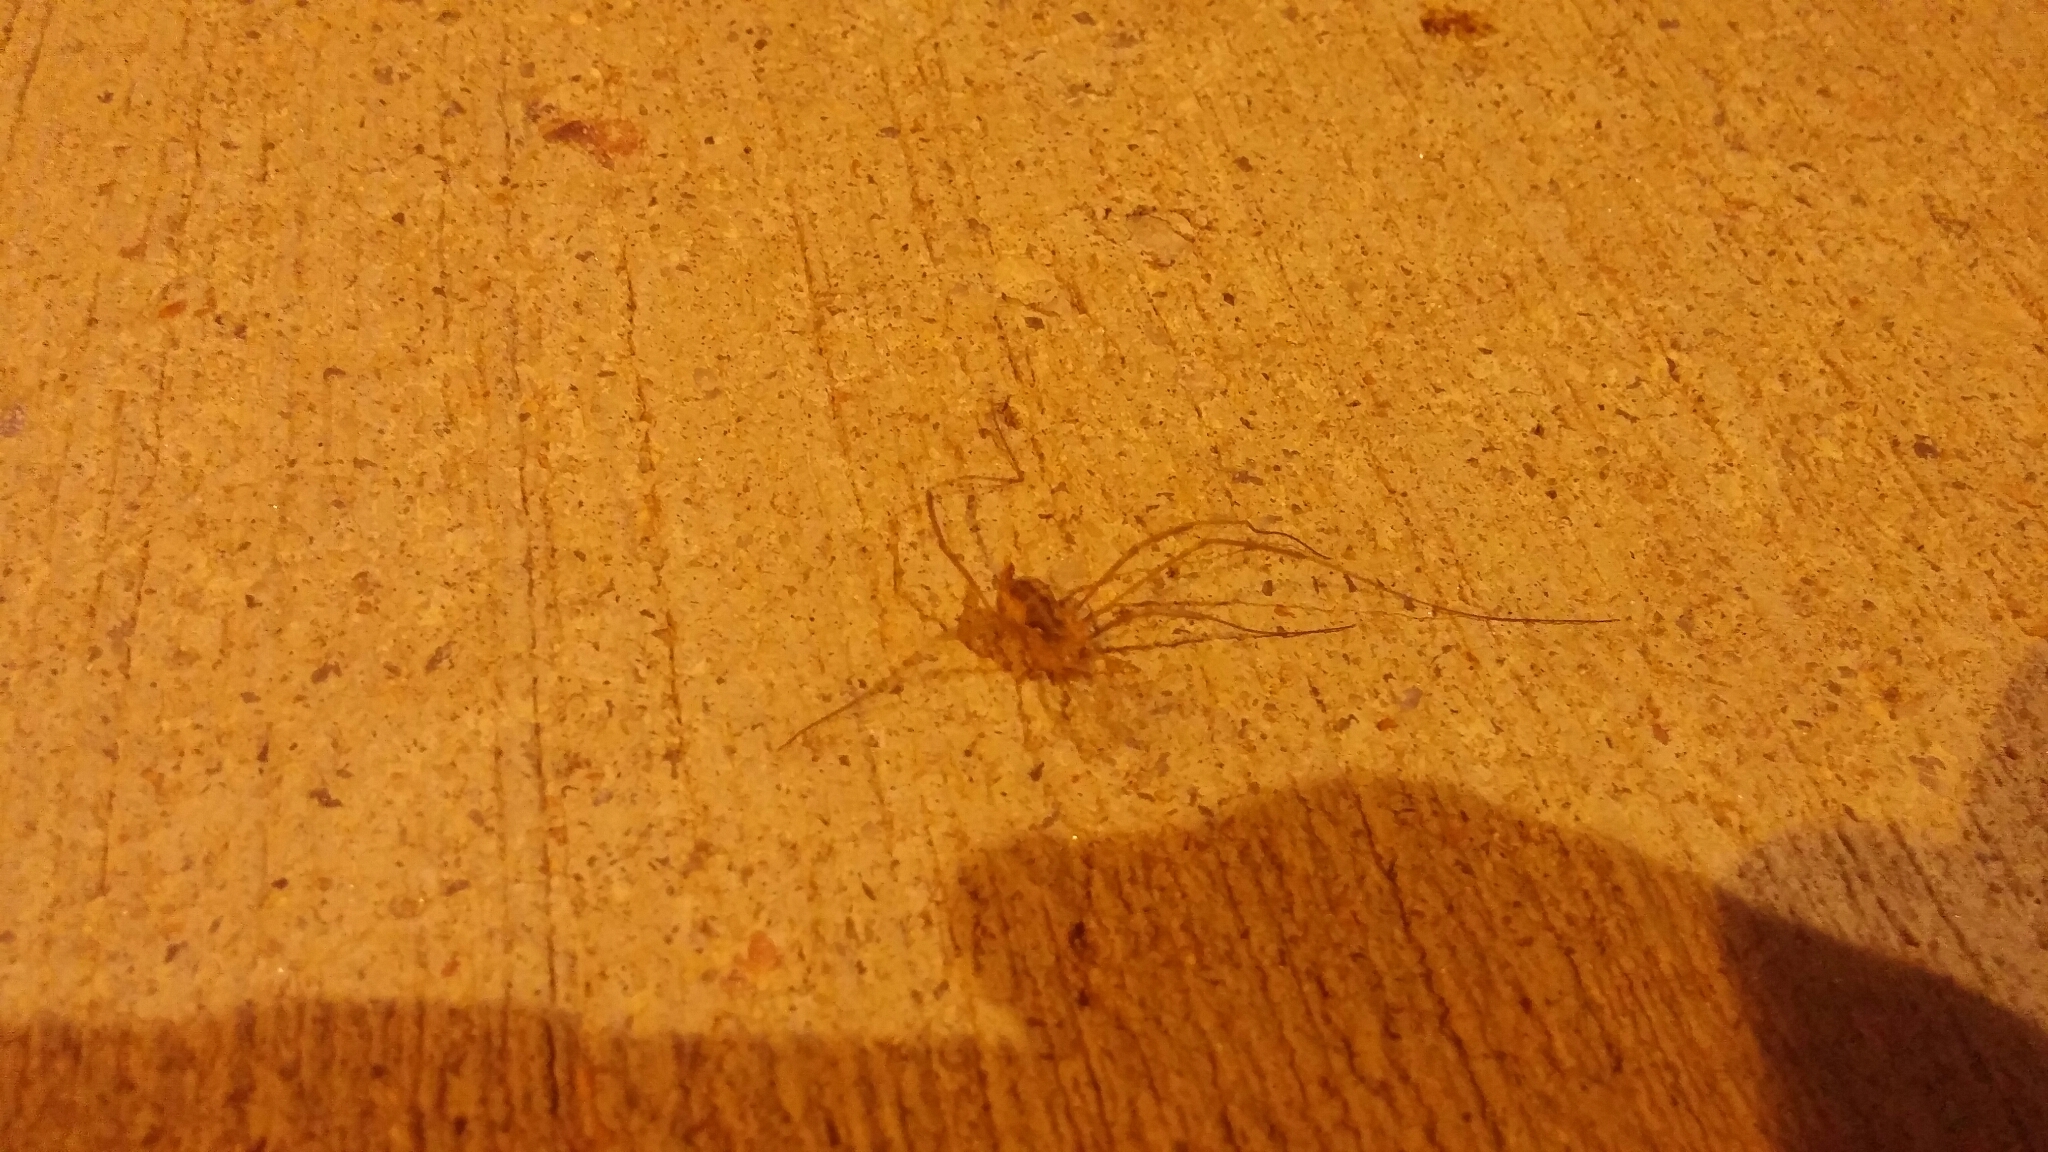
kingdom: Animalia
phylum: Arthropoda
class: Arachnida
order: Opiliones
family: Phalangiidae
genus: Phalangium
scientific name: Phalangium opilio
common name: Daddy longleg
